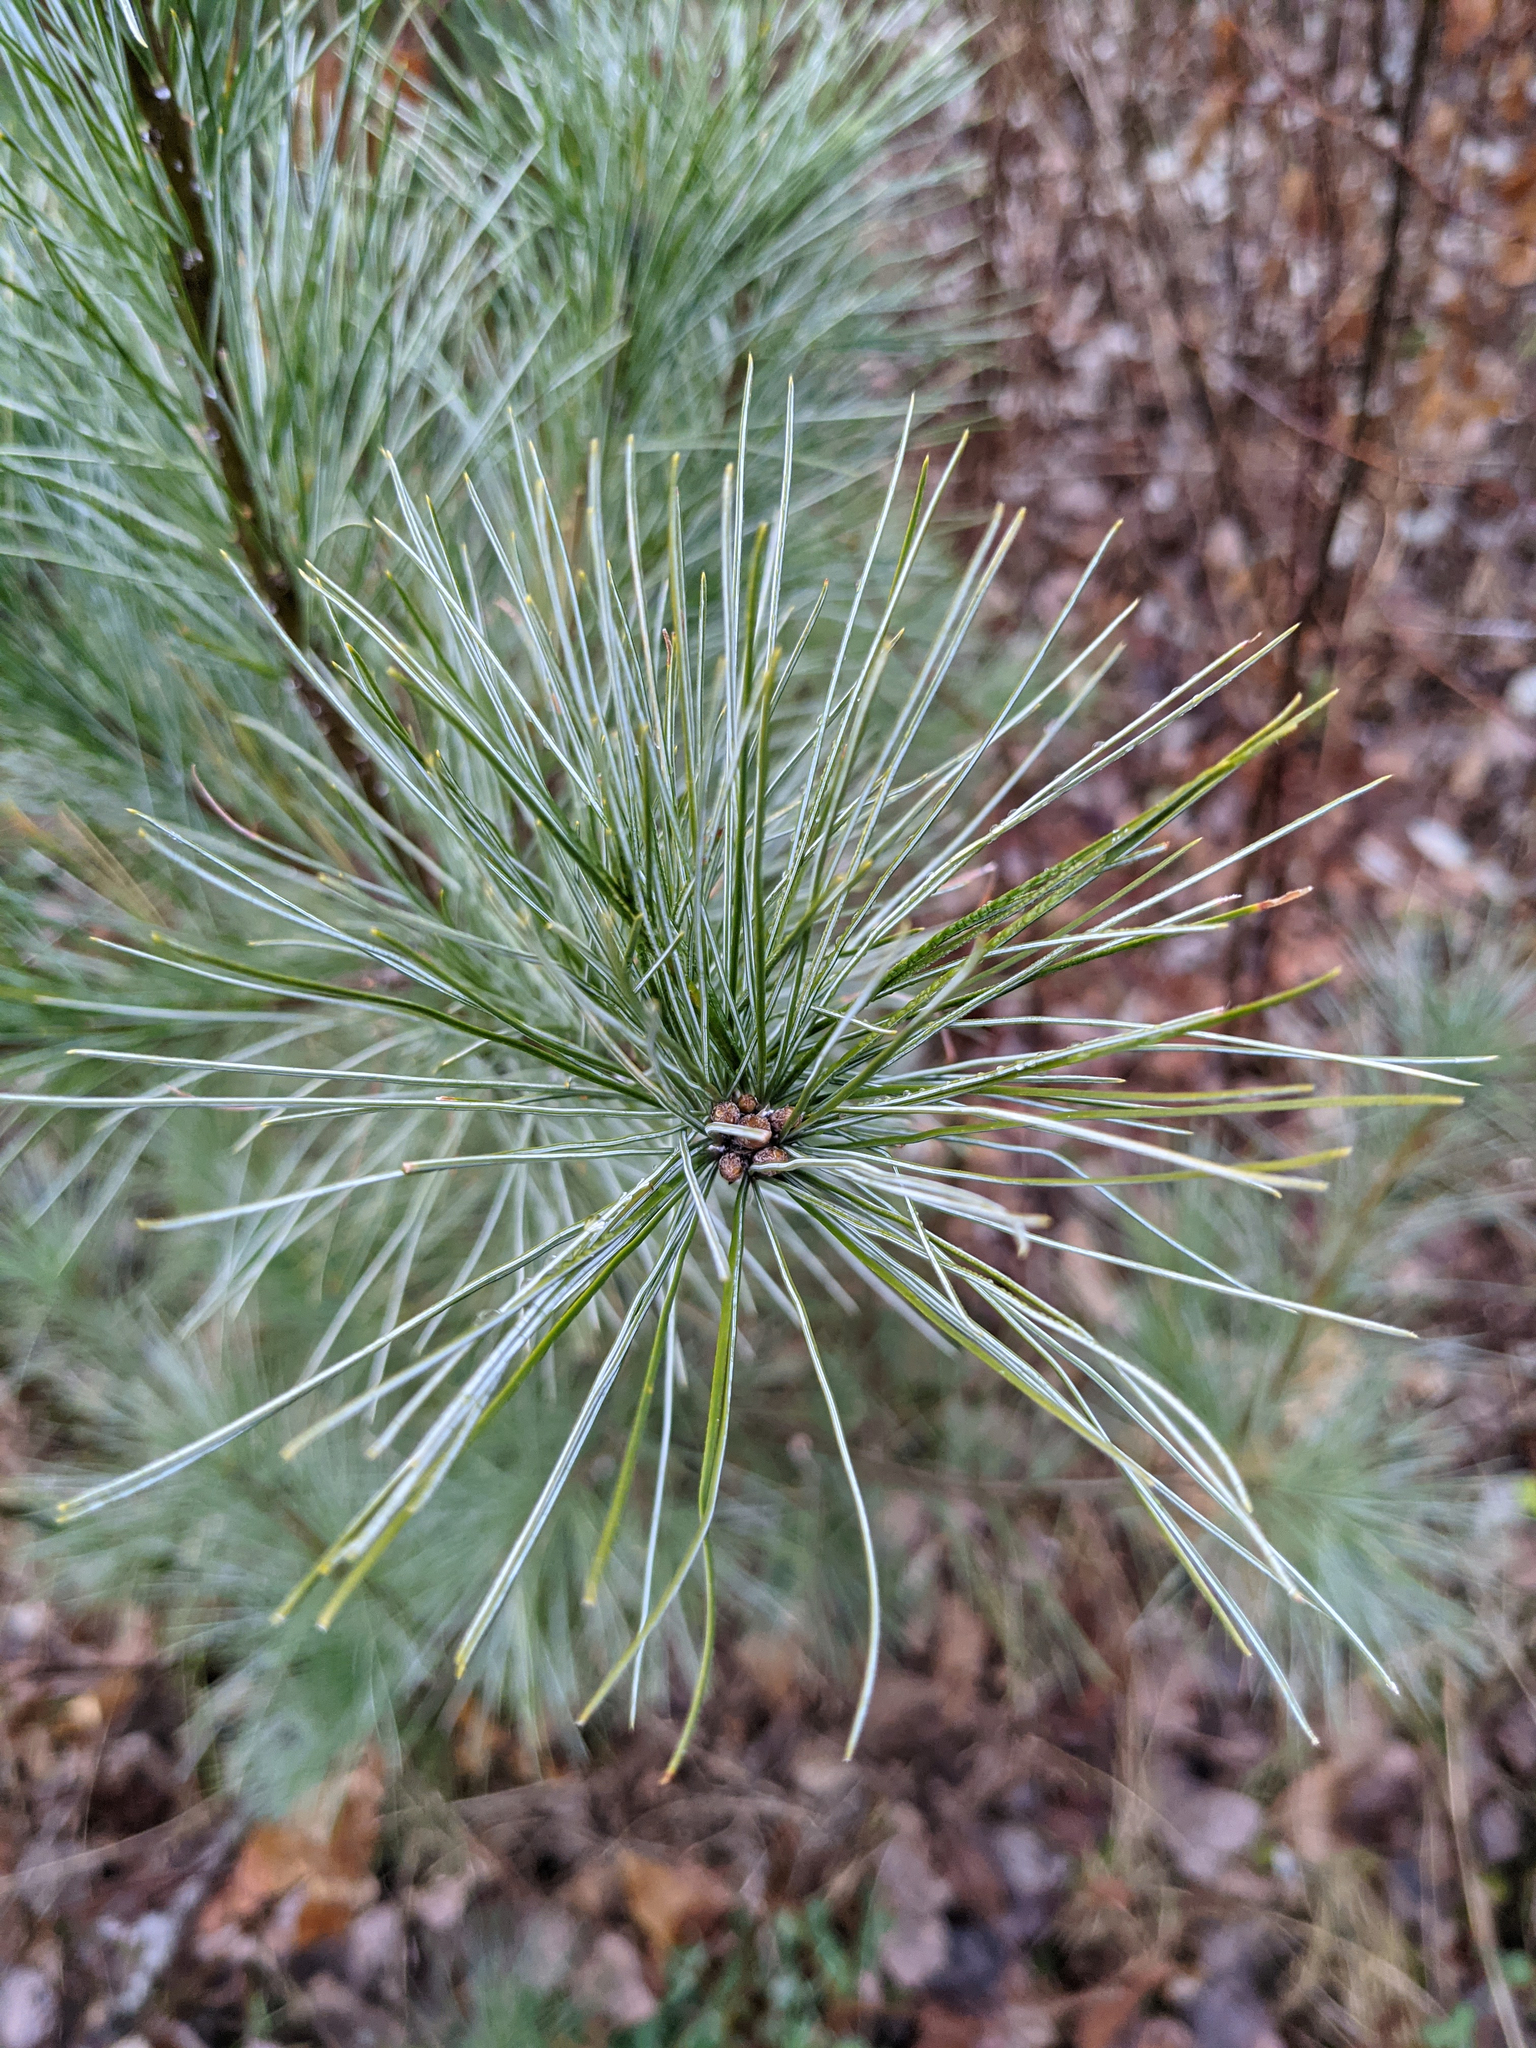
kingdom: Plantae
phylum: Tracheophyta
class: Pinopsida
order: Pinales
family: Pinaceae
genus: Pinus
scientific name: Pinus strobus
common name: Weymouth pine
